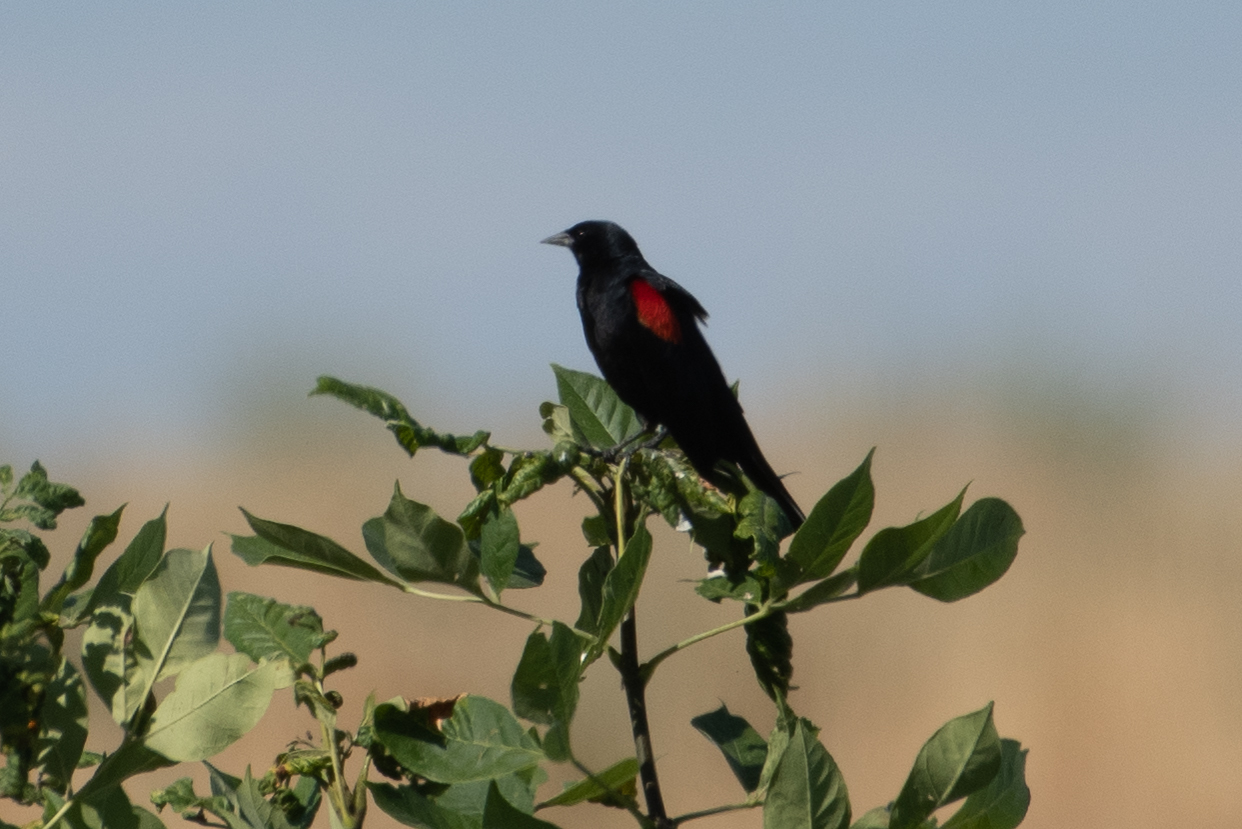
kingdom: Animalia
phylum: Chordata
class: Aves
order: Passeriformes
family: Icteridae
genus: Agelaius
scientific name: Agelaius phoeniceus
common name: Red-winged blackbird
